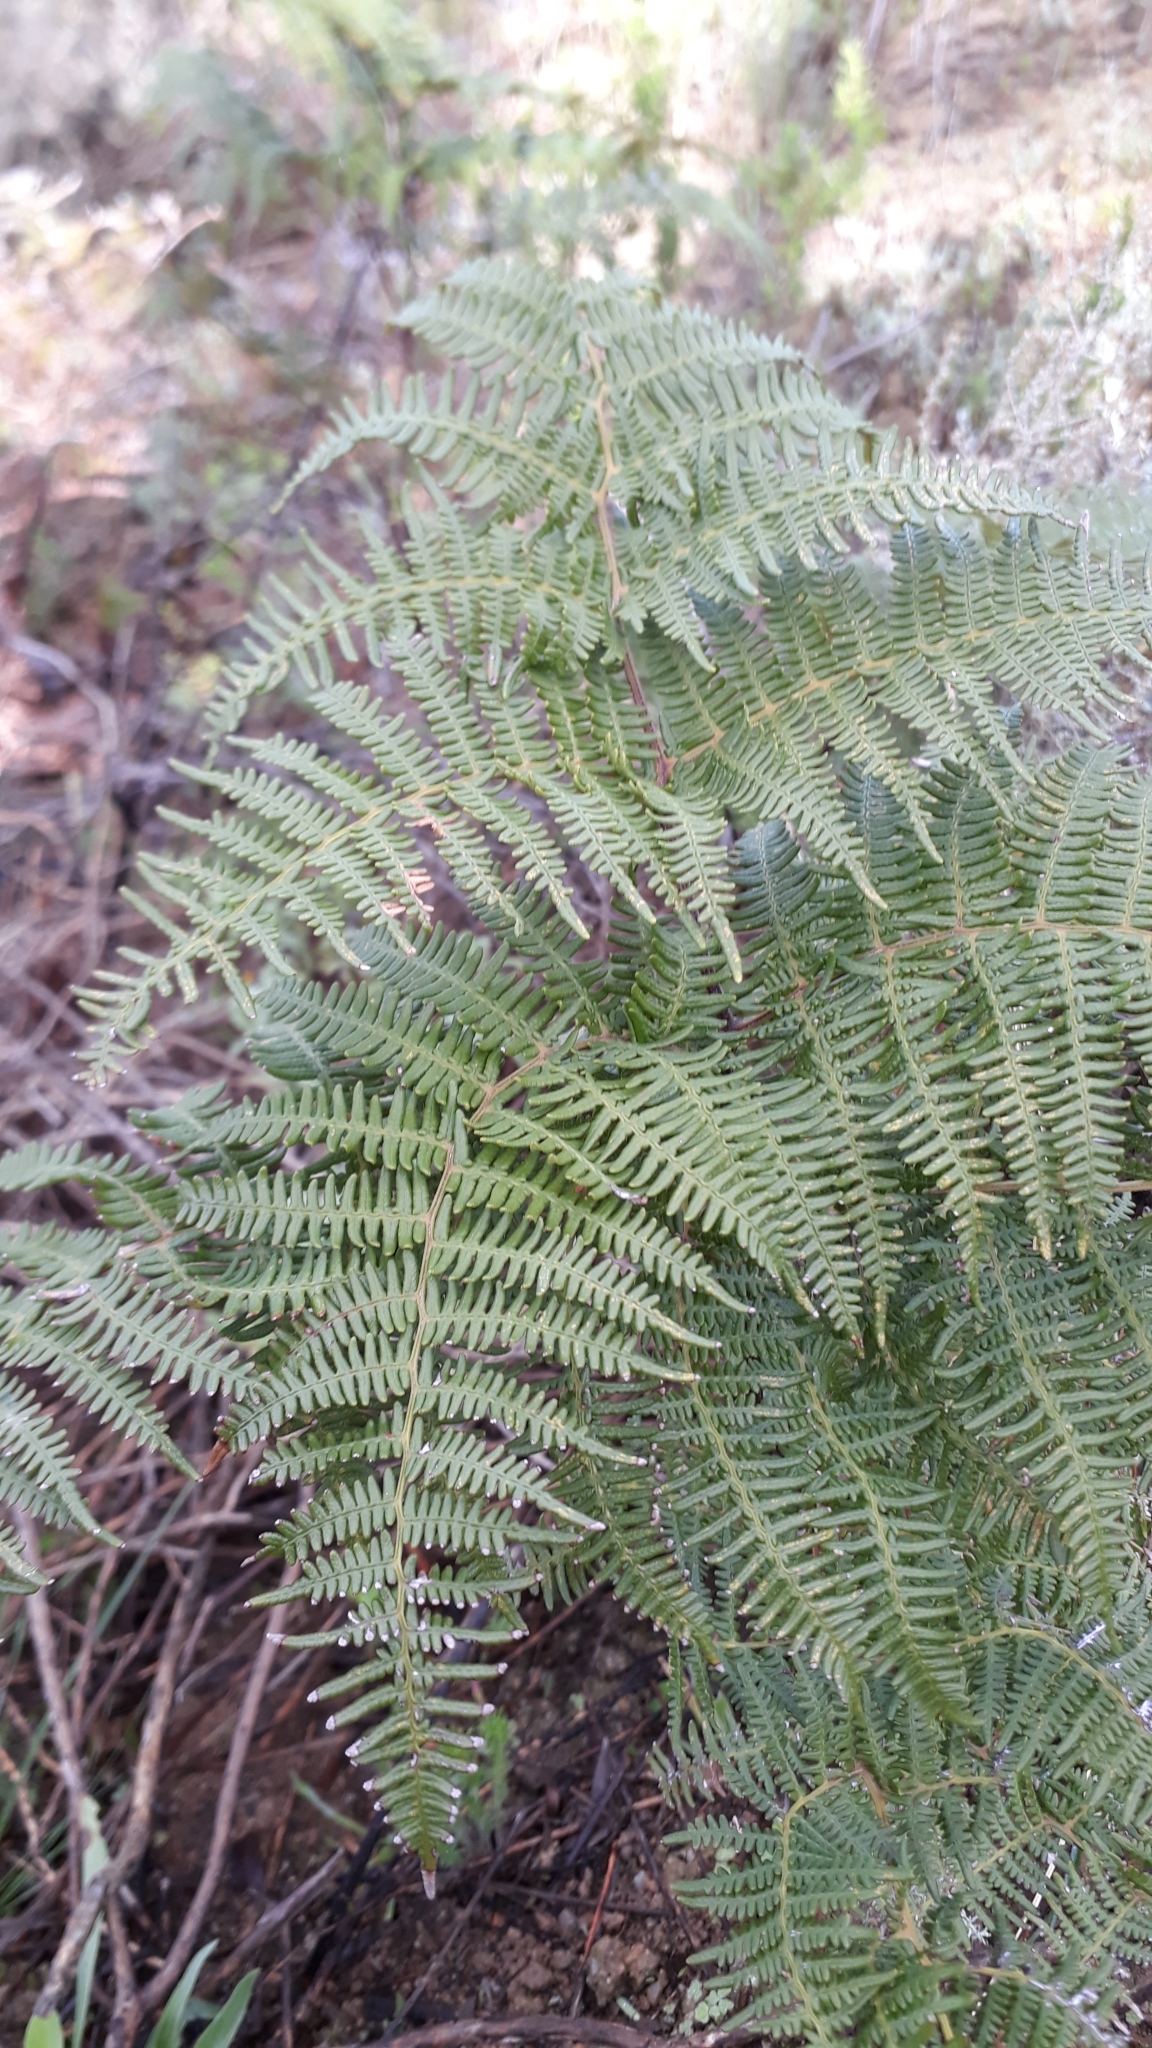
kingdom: Plantae
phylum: Tracheophyta
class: Polypodiopsida
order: Polypodiales
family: Dennstaedtiaceae
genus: Pteridium
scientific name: Pteridium aquilinum
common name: Bracken
